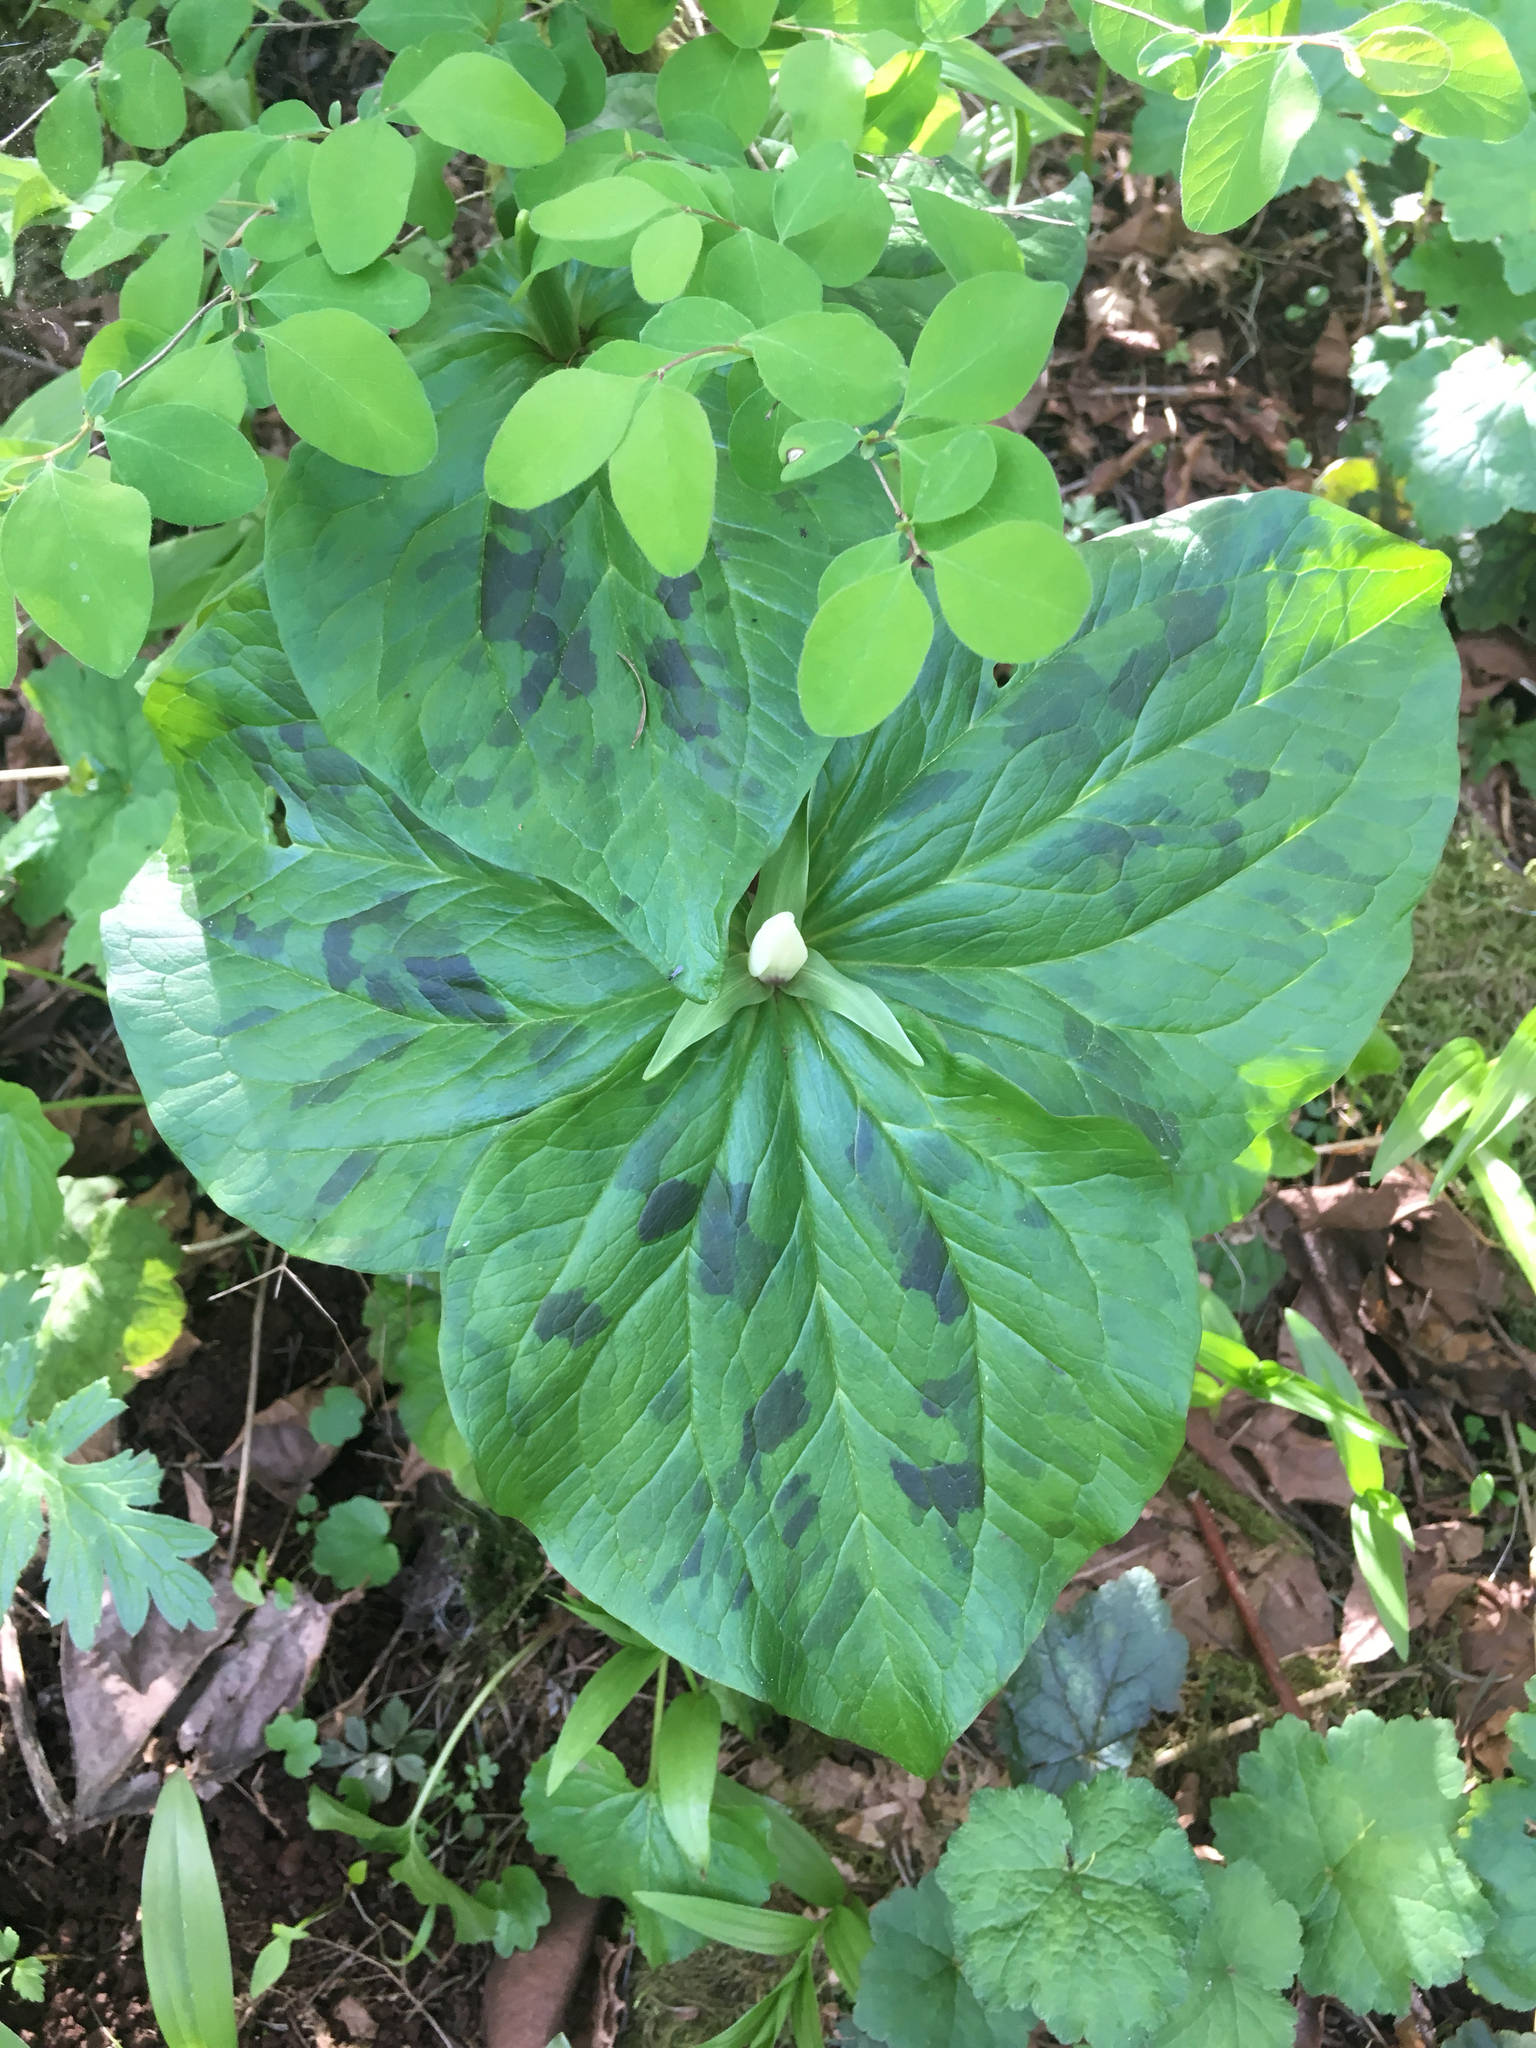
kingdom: Plantae
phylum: Tracheophyta
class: Liliopsida
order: Liliales
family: Melanthiaceae
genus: Trillium
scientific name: Trillium albidum
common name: Freeman's trillium
